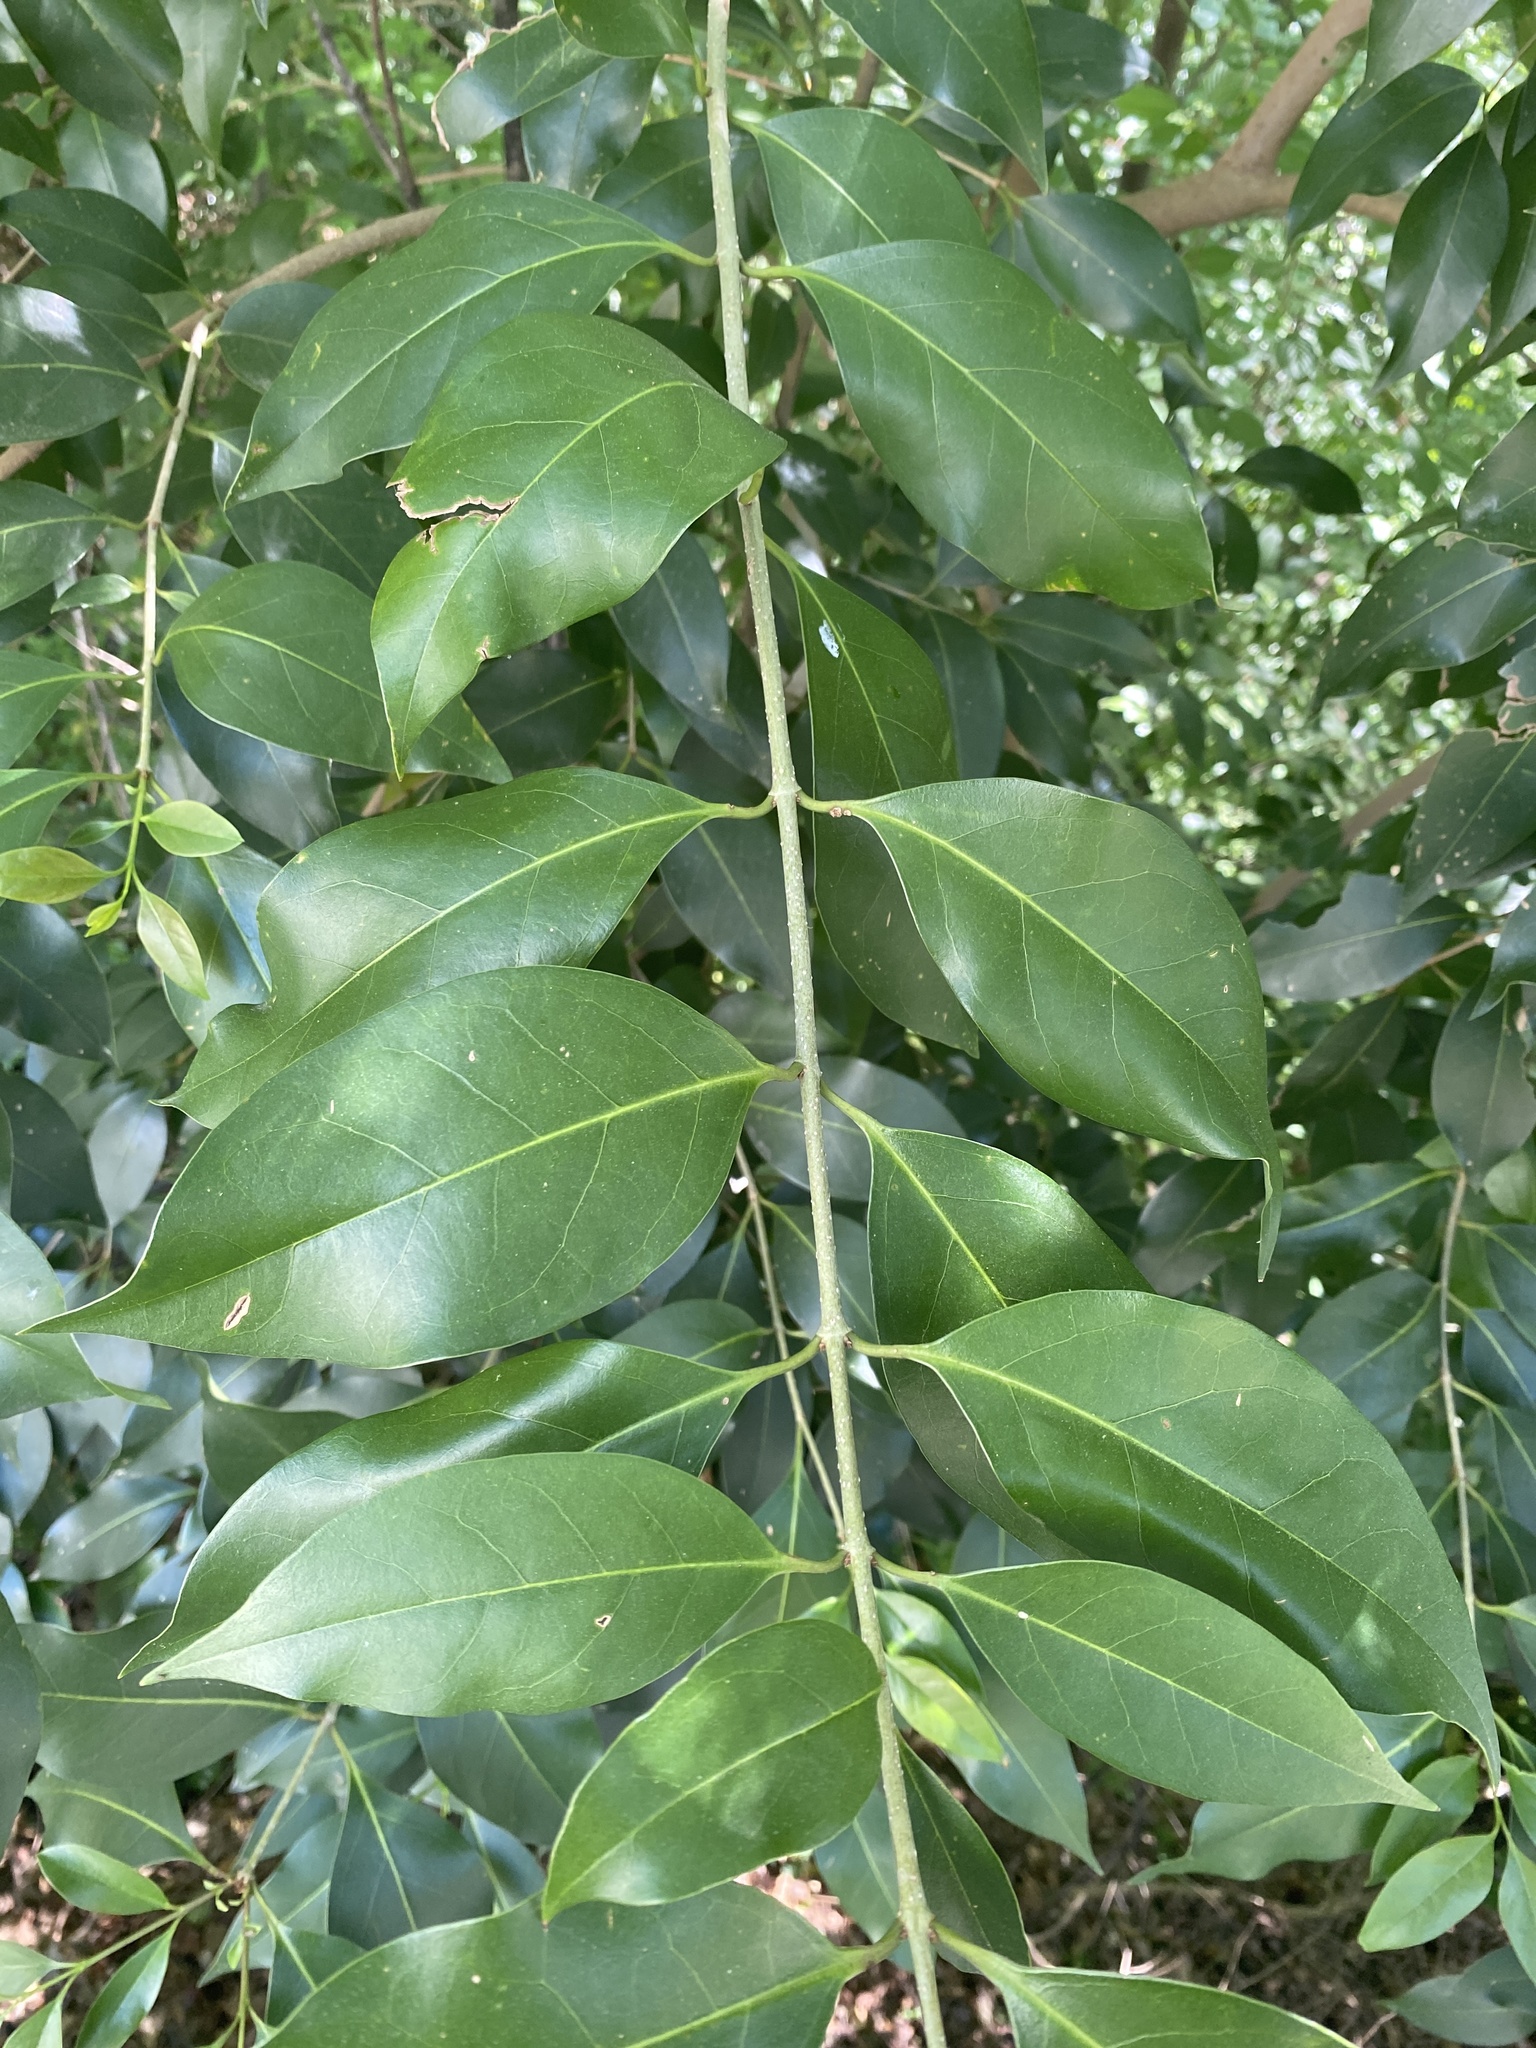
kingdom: Plantae
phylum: Tracheophyta
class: Magnoliopsida
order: Lamiales
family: Oleaceae
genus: Ligustrum
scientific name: Ligustrum lucidum
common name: Glossy privet
